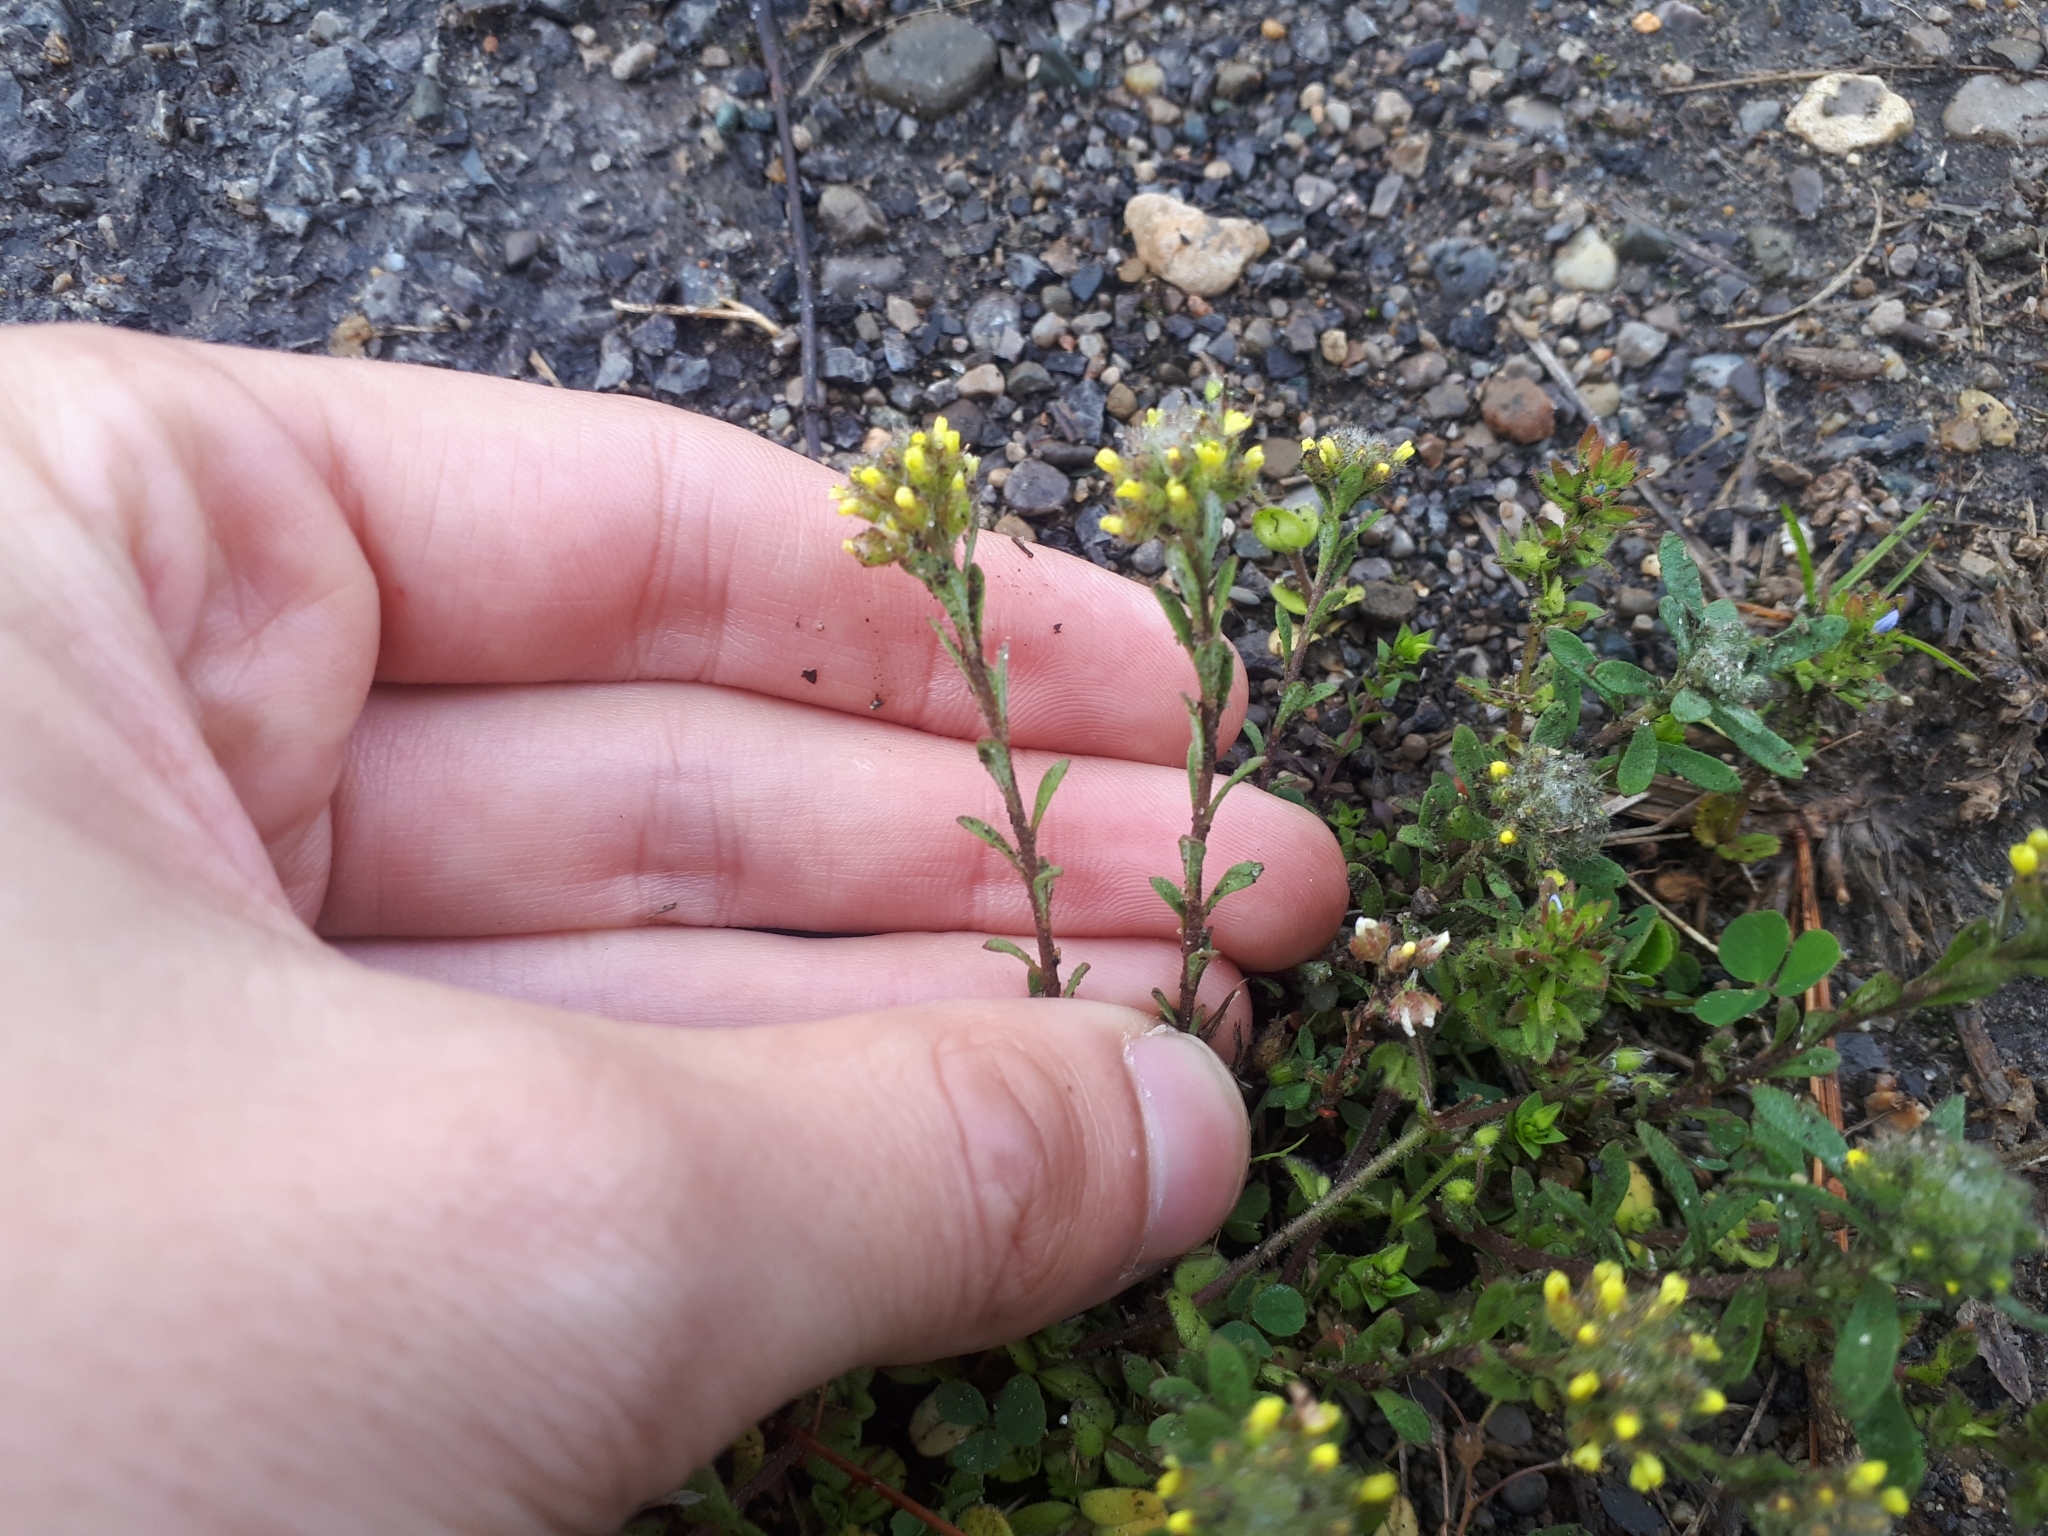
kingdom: Plantae
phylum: Tracheophyta
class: Magnoliopsida
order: Brassicales
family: Brassicaceae
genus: Alyssum
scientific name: Alyssum alyssoides
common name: Small alison
